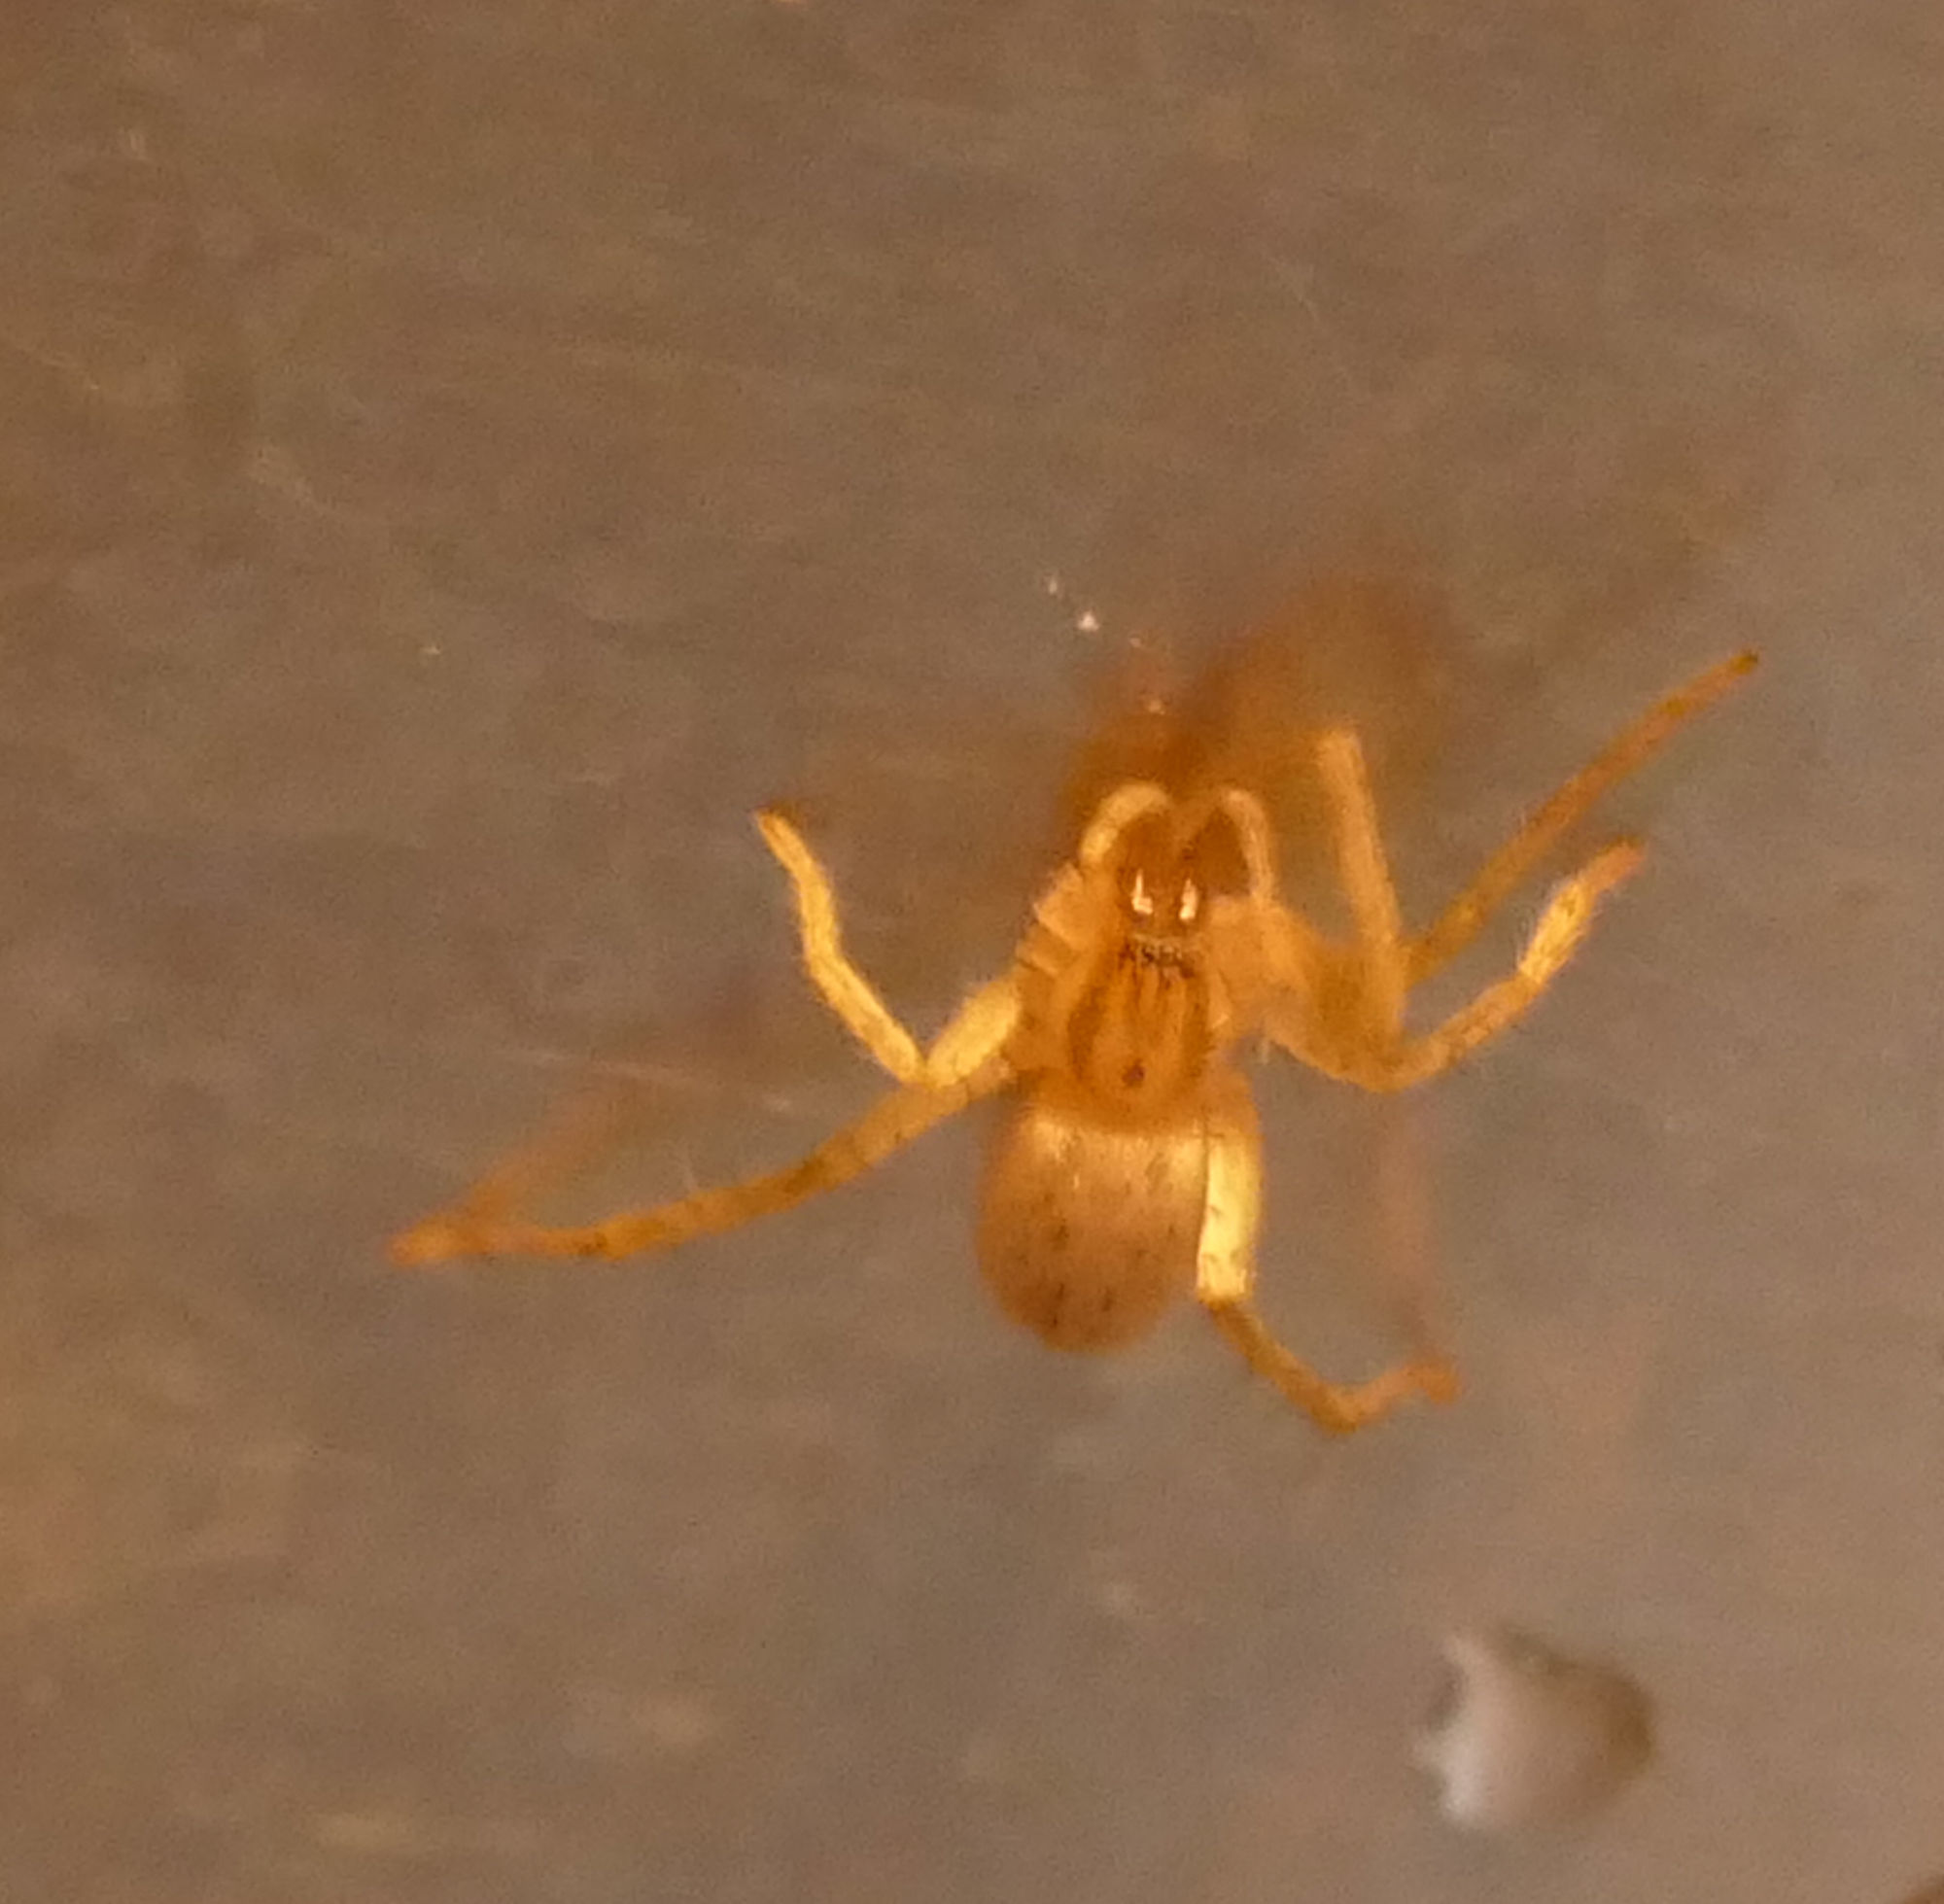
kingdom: Animalia
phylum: Arthropoda
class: Arachnida
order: Araneae
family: Anyphaenidae
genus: Hibana
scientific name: Hibana gracilis
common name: Garden ghost spider
